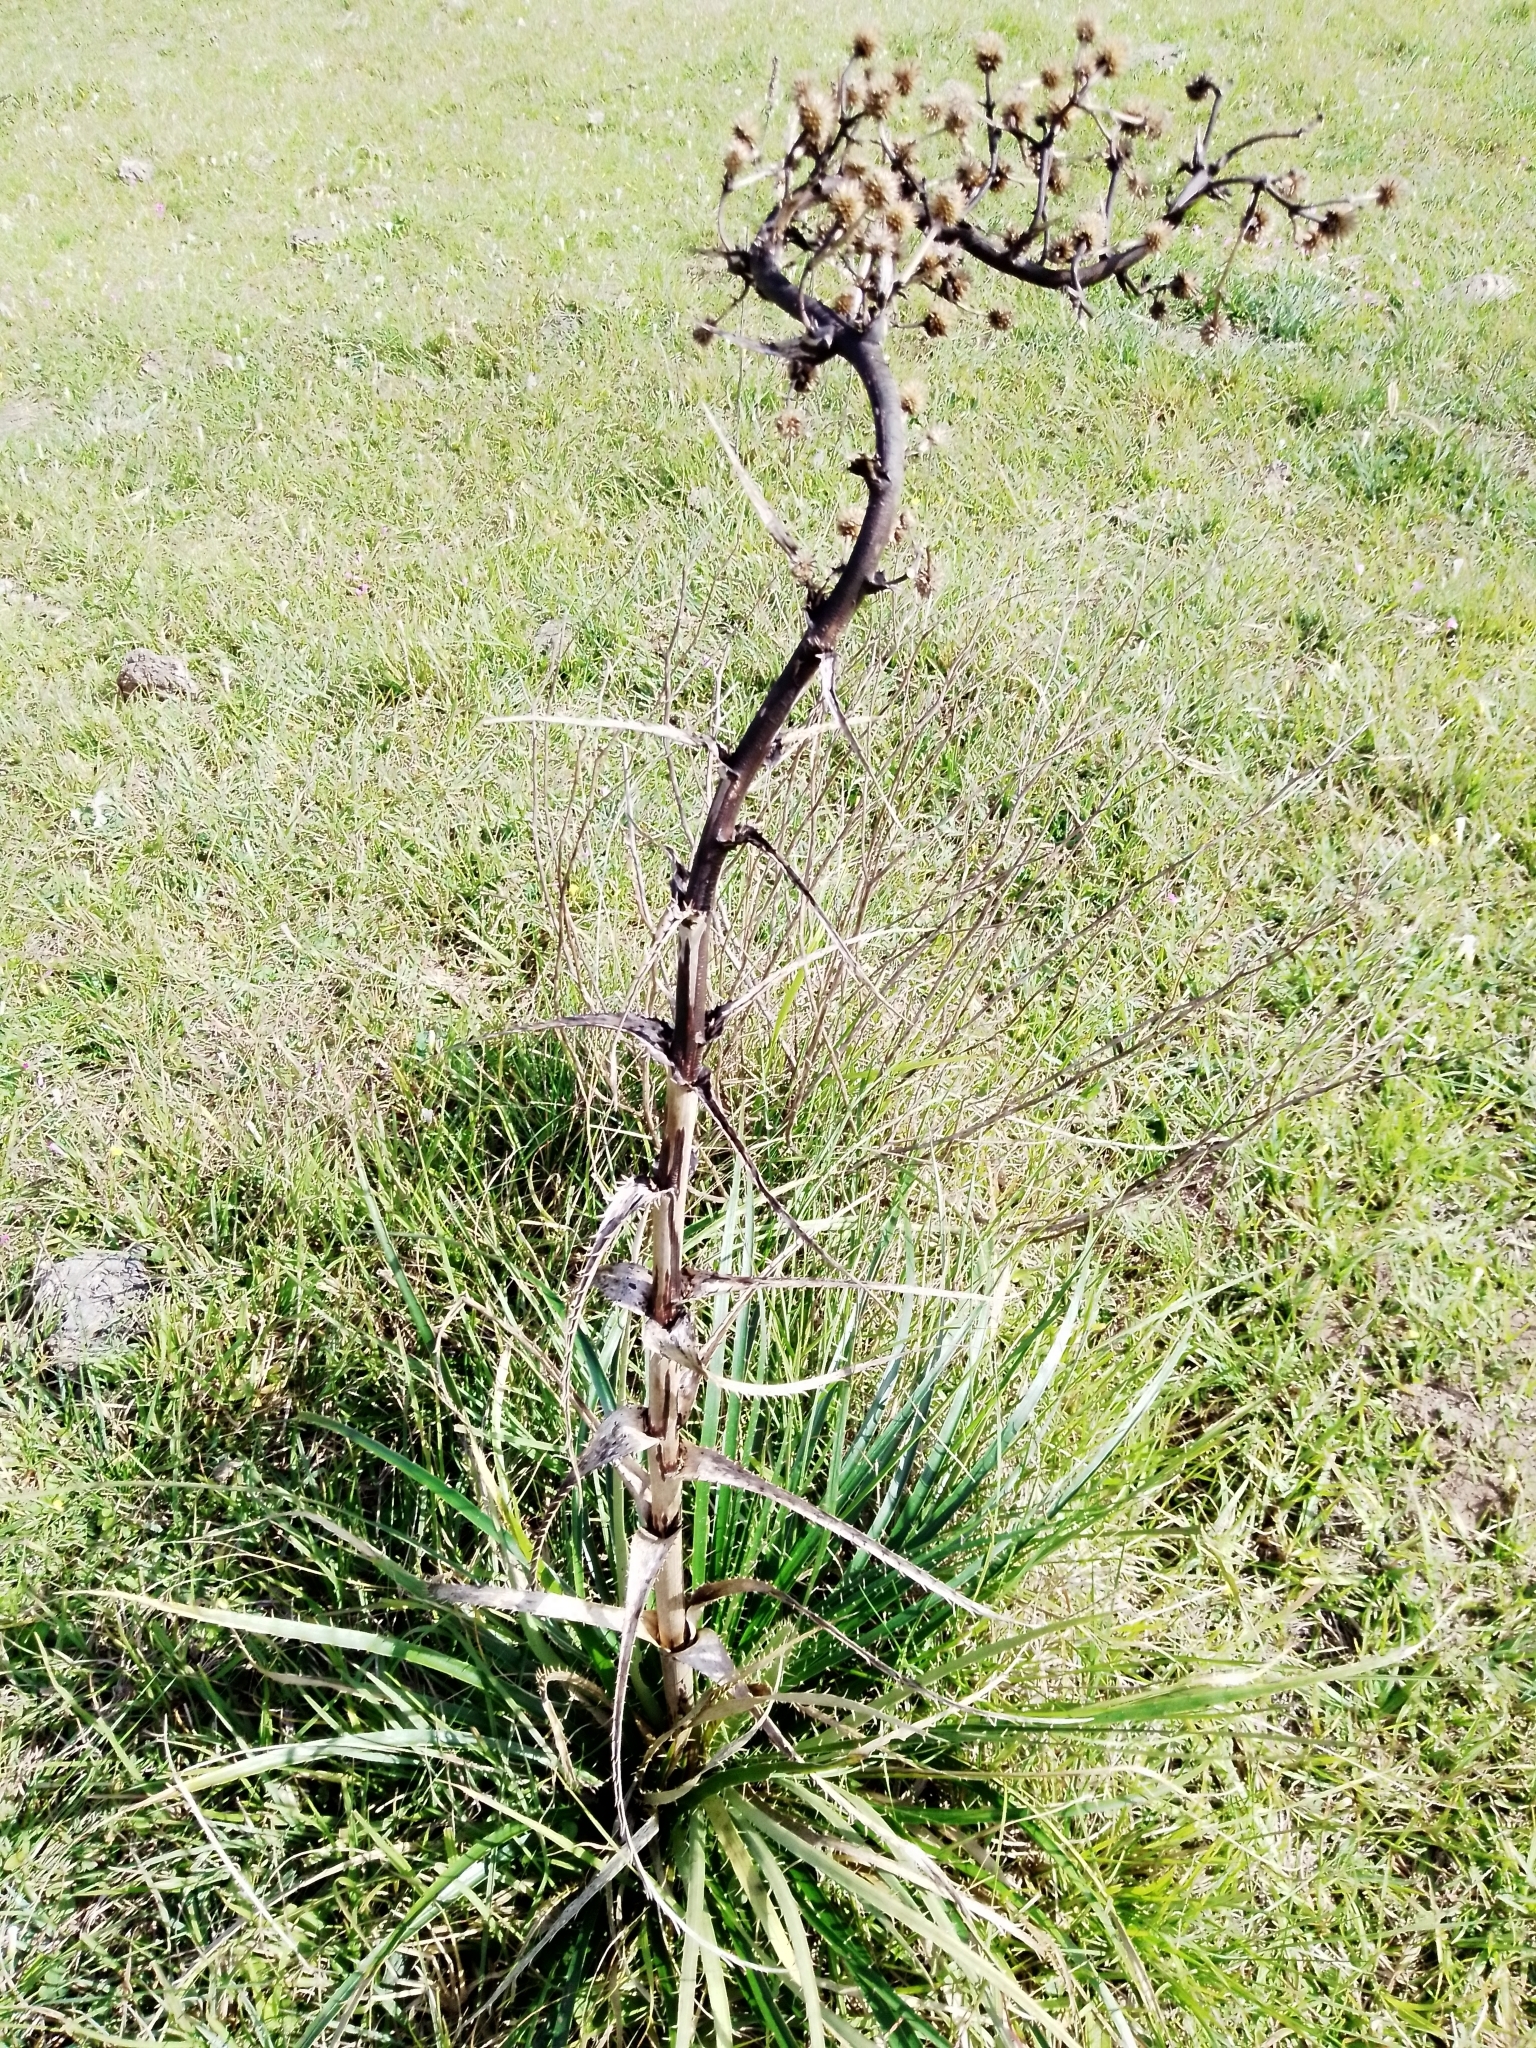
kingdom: Plantae
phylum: Tracheophyta
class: Magnoliopsida
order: Apiales
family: Apiaceae
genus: Eryngium
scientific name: Eryngium horridum
